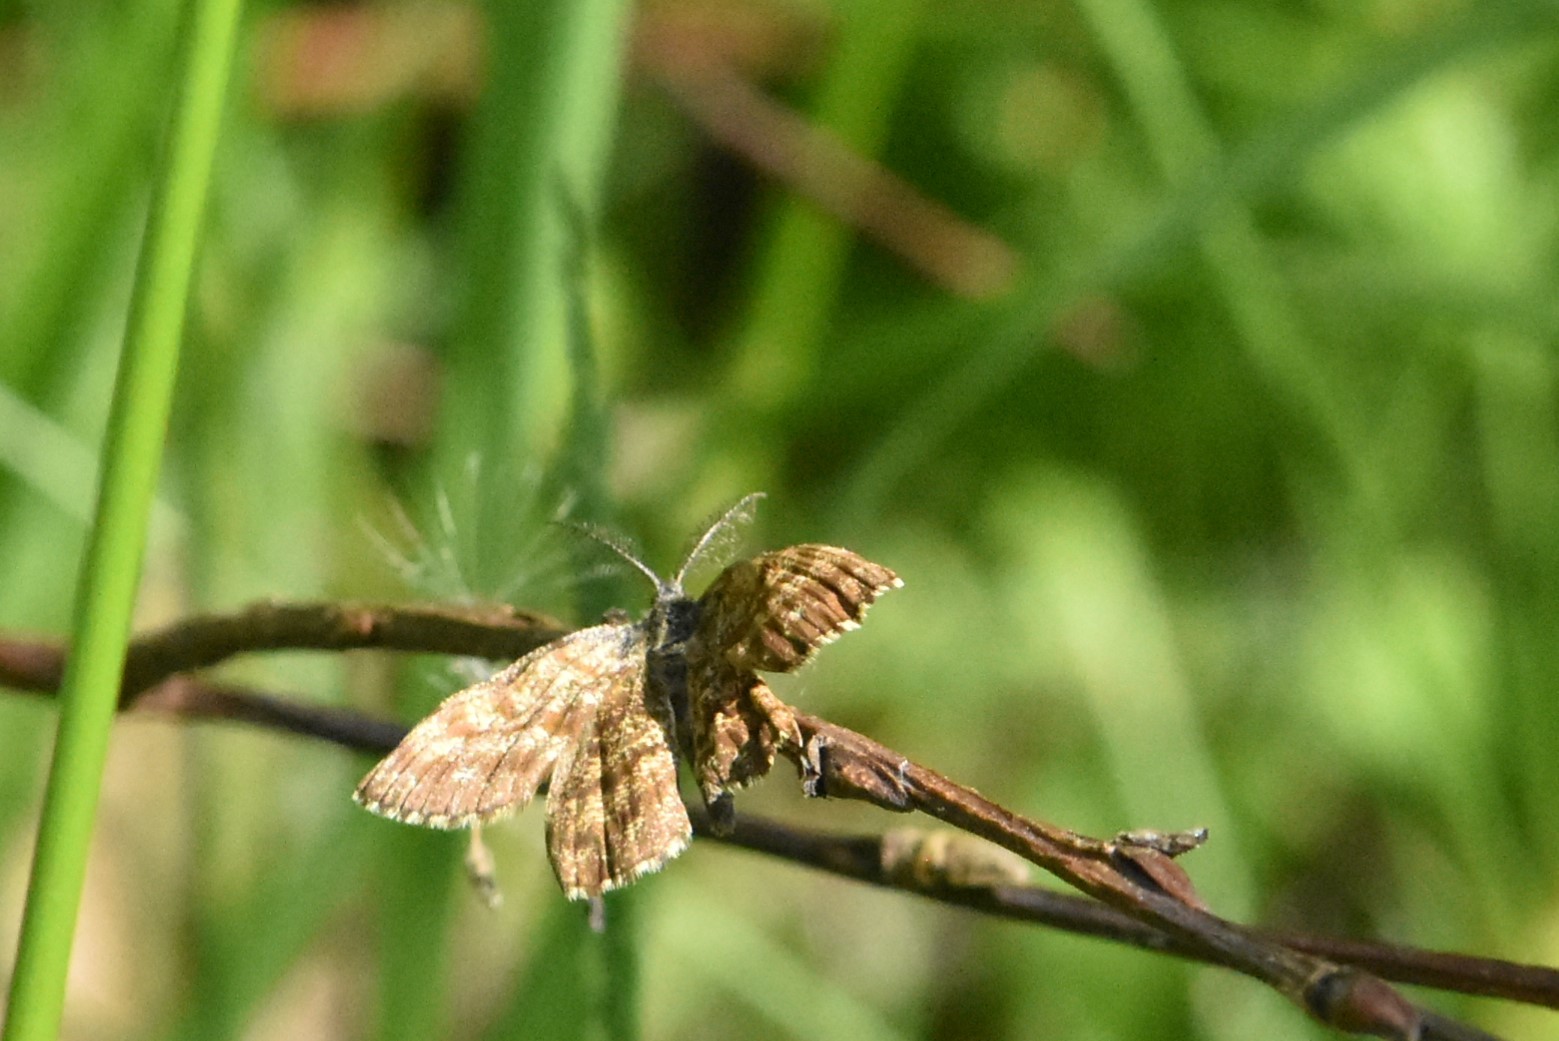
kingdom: Animalia
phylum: Arthropoda
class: Insecta
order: Lepidoptera
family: Geometridae
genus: Ematurga
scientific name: Ematurga atomaria
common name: Common heath
